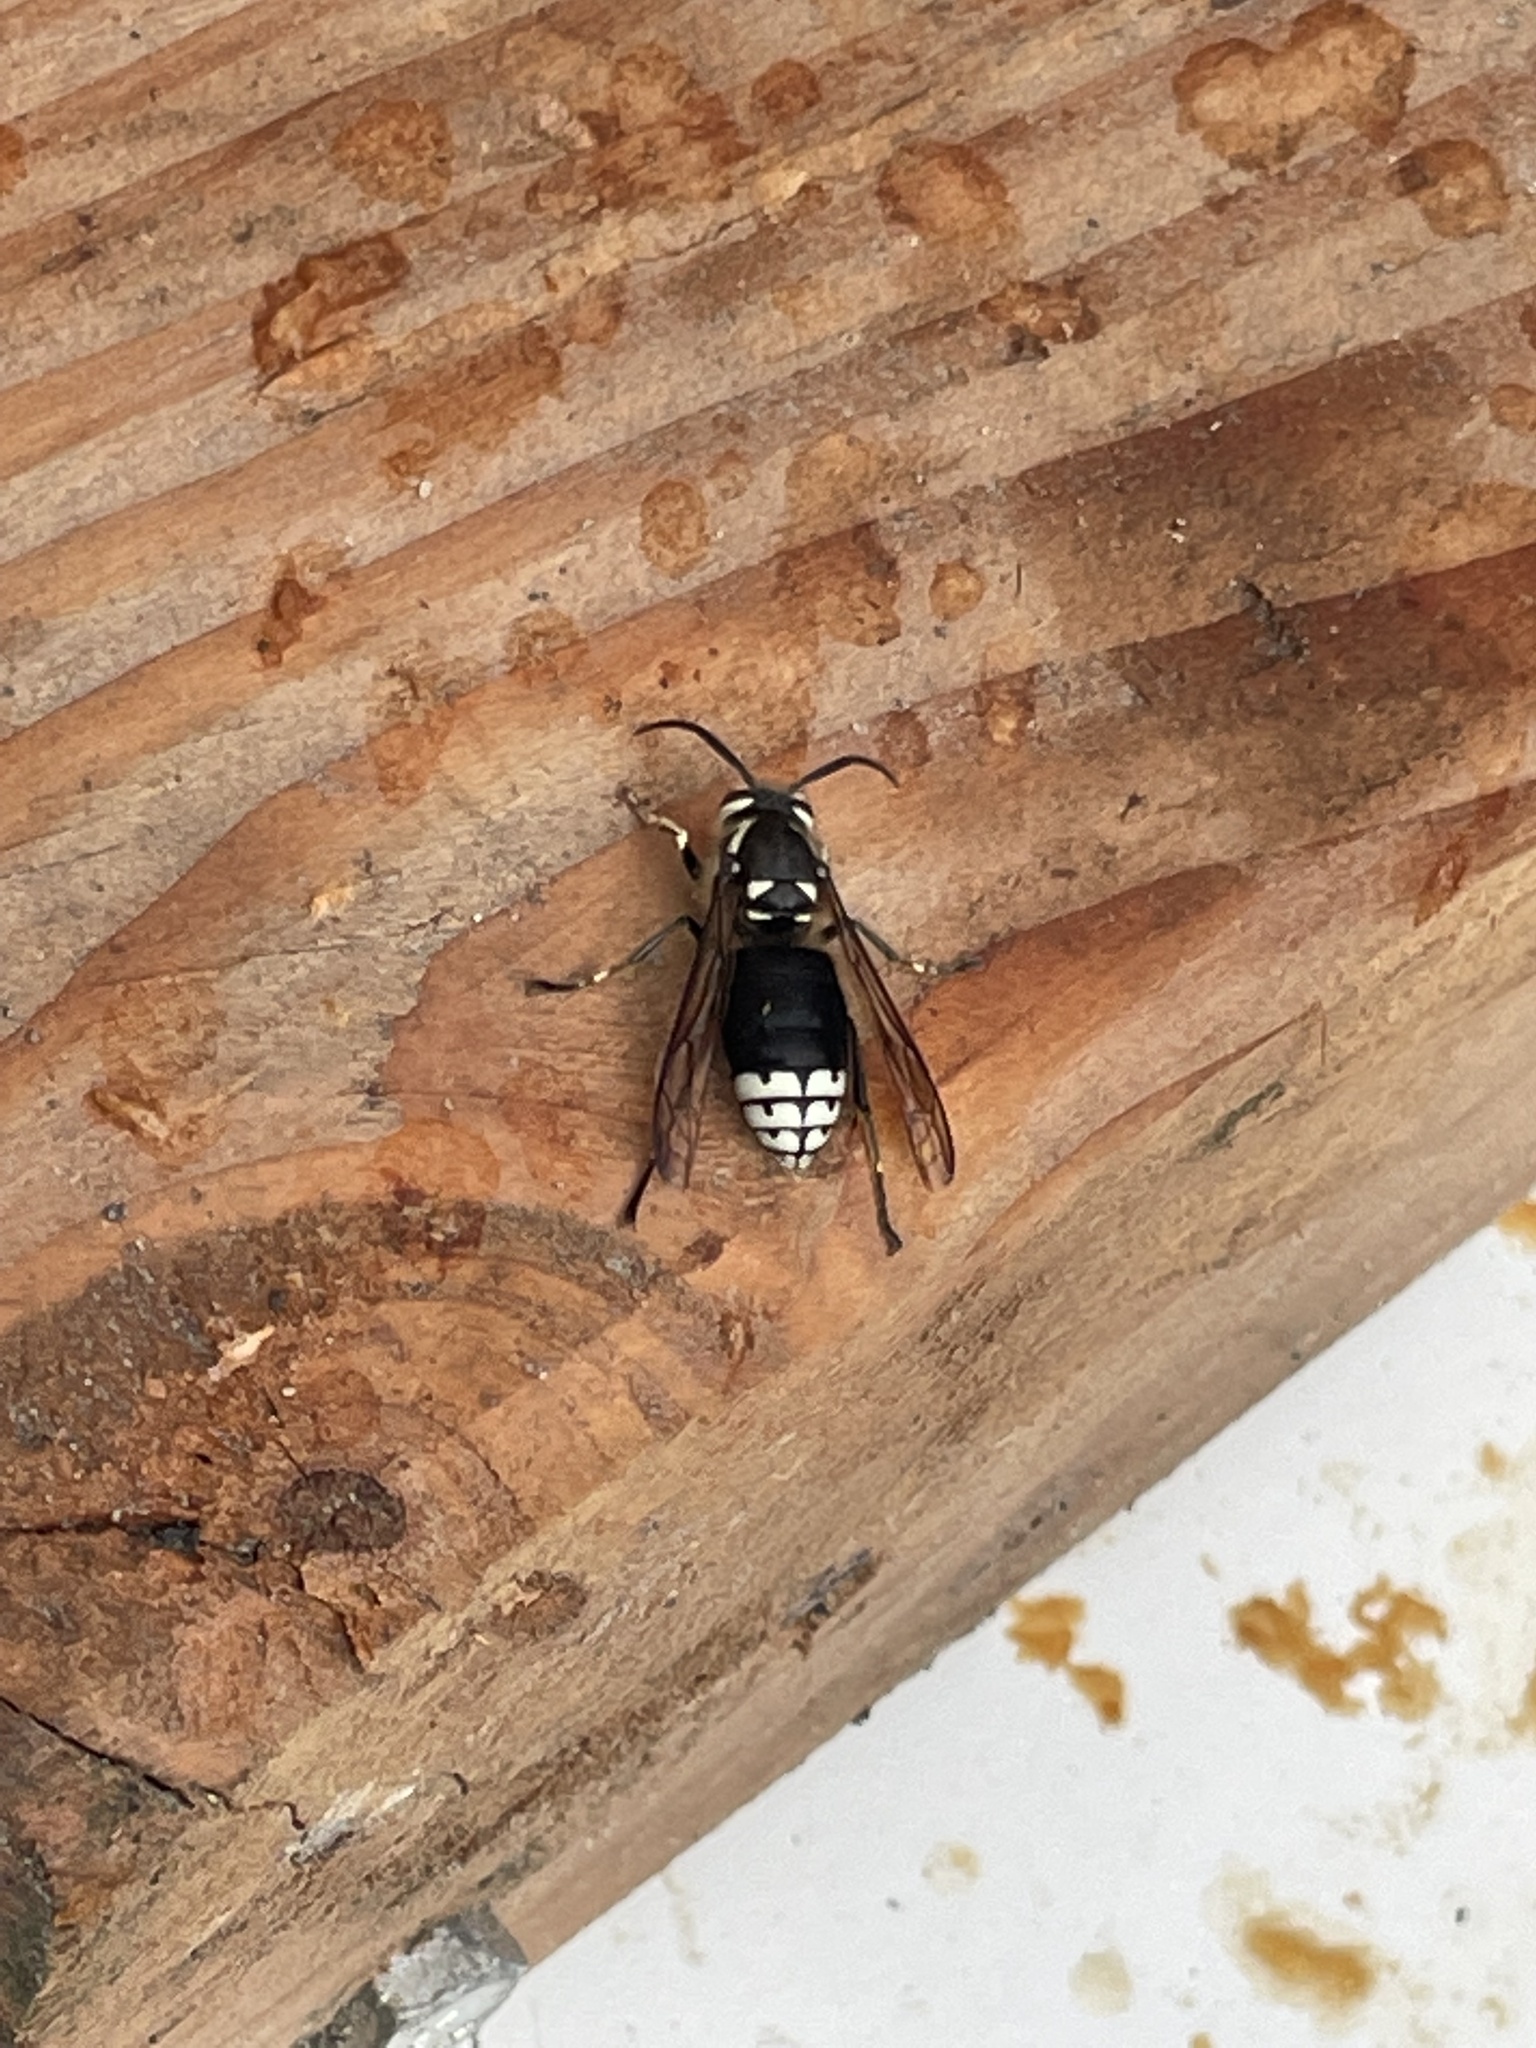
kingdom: Animalia
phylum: Arthropoda
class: Insecta
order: Hymenoptera
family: Vespidae
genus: Dolichovespula
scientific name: Dolichovespula maculata
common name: Bald-faced hornet
